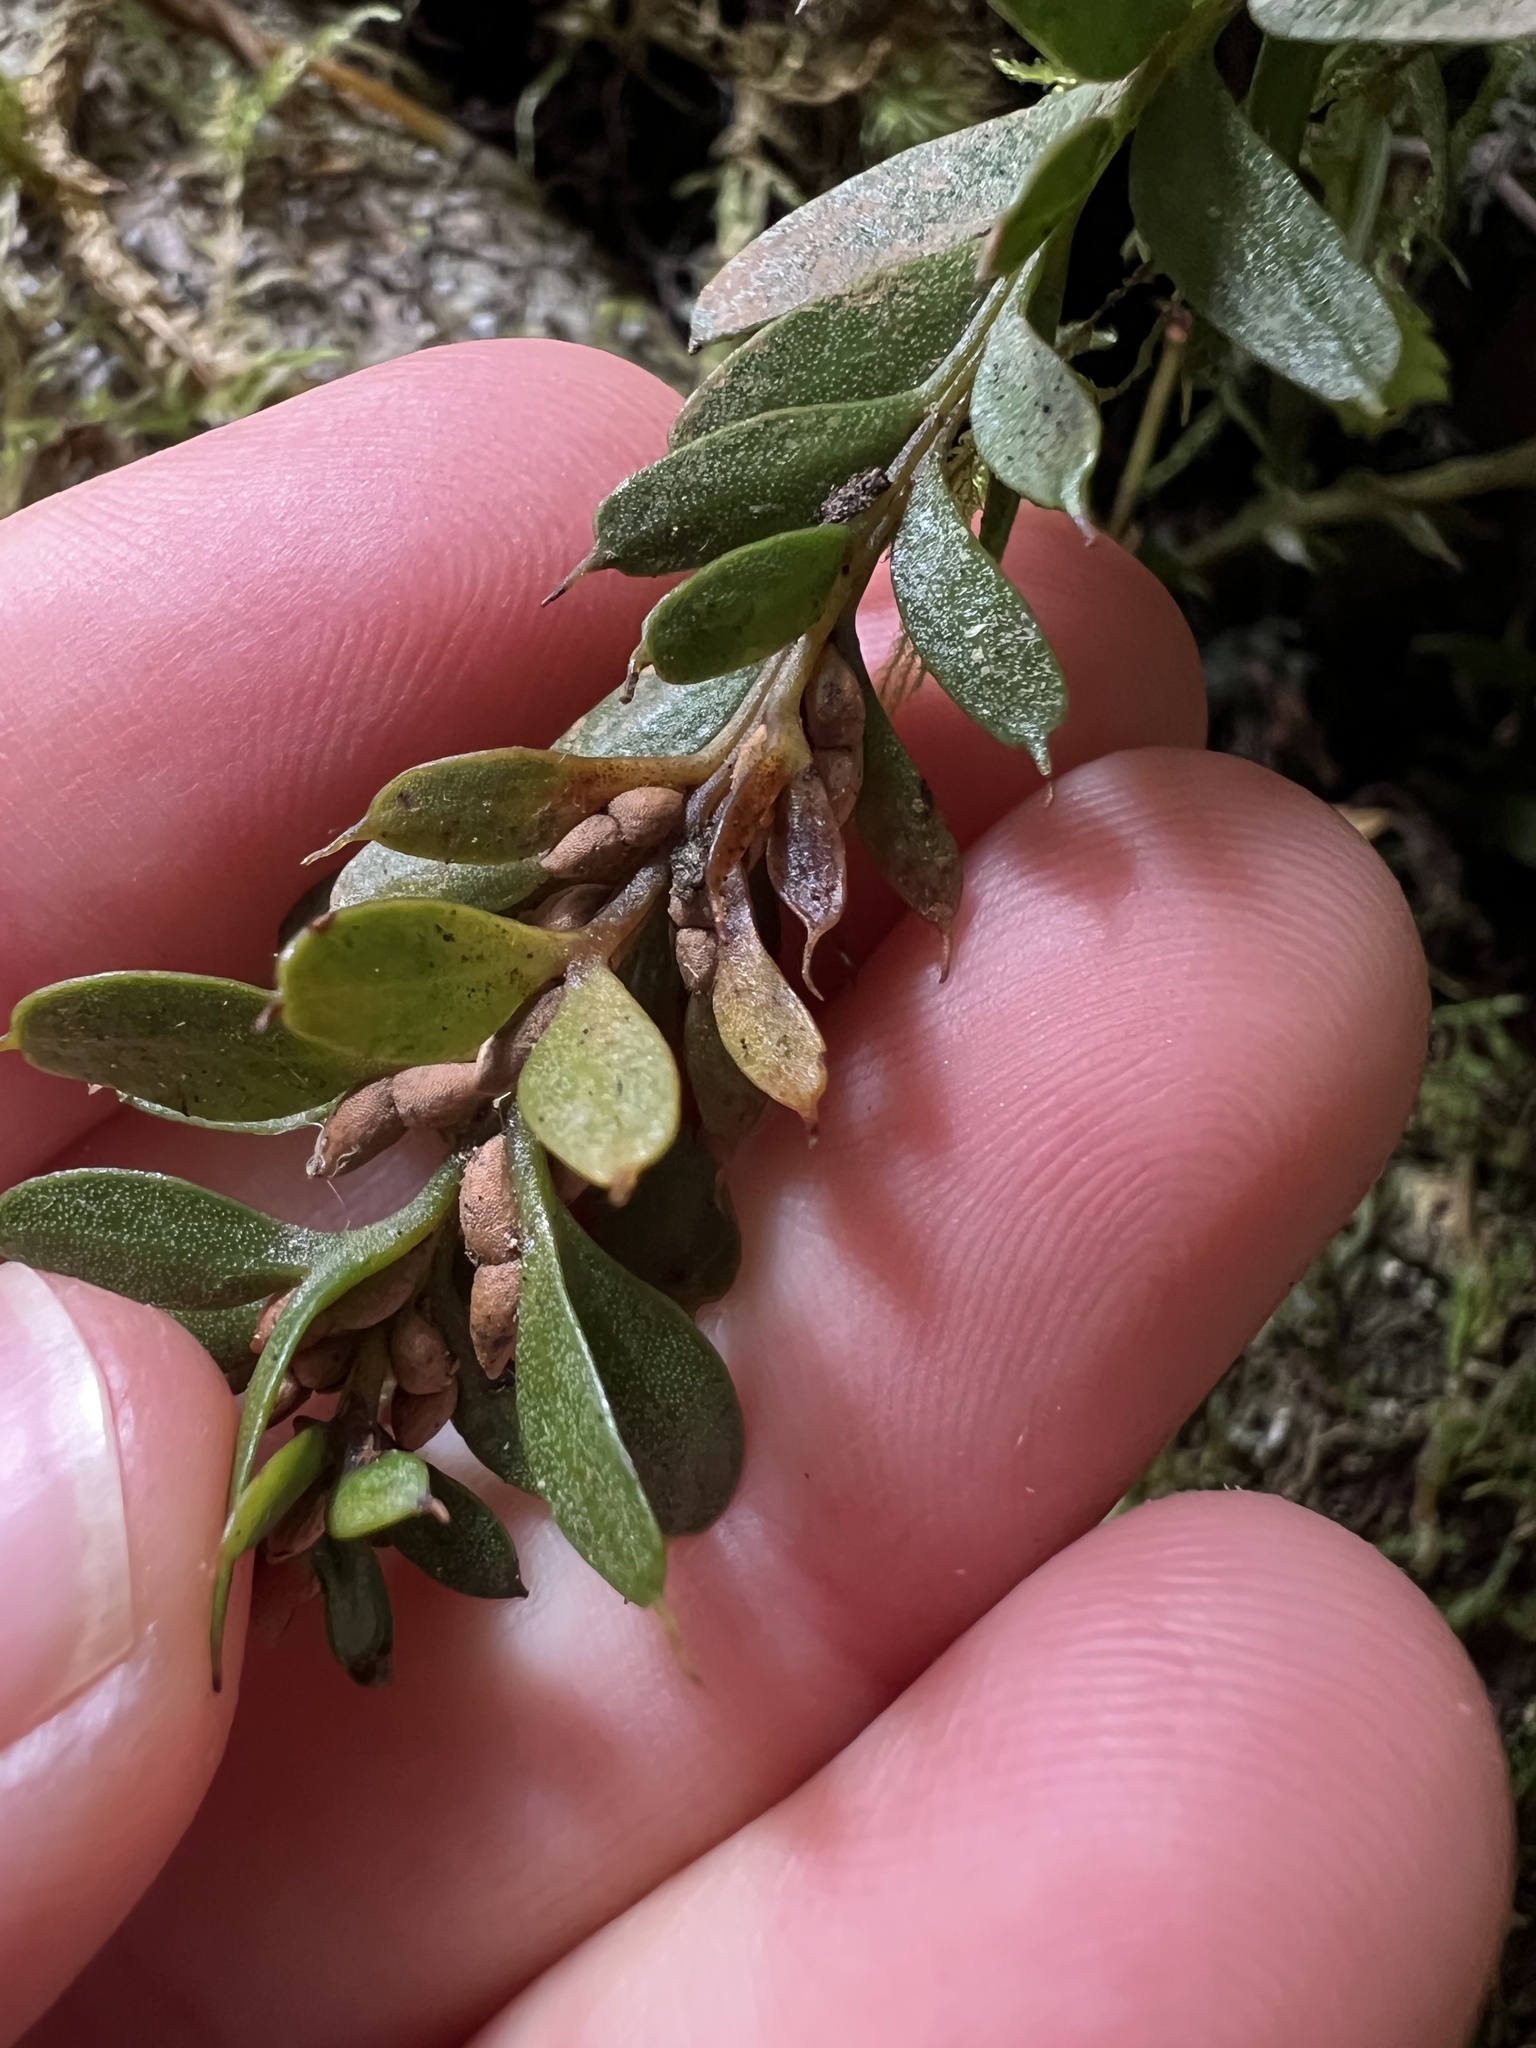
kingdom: Plantae
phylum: Tracheophyta
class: Polypodiopsida
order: Psilotales
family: Psilotaceae
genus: Tmesipteris
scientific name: Tmesipteris tannensis
